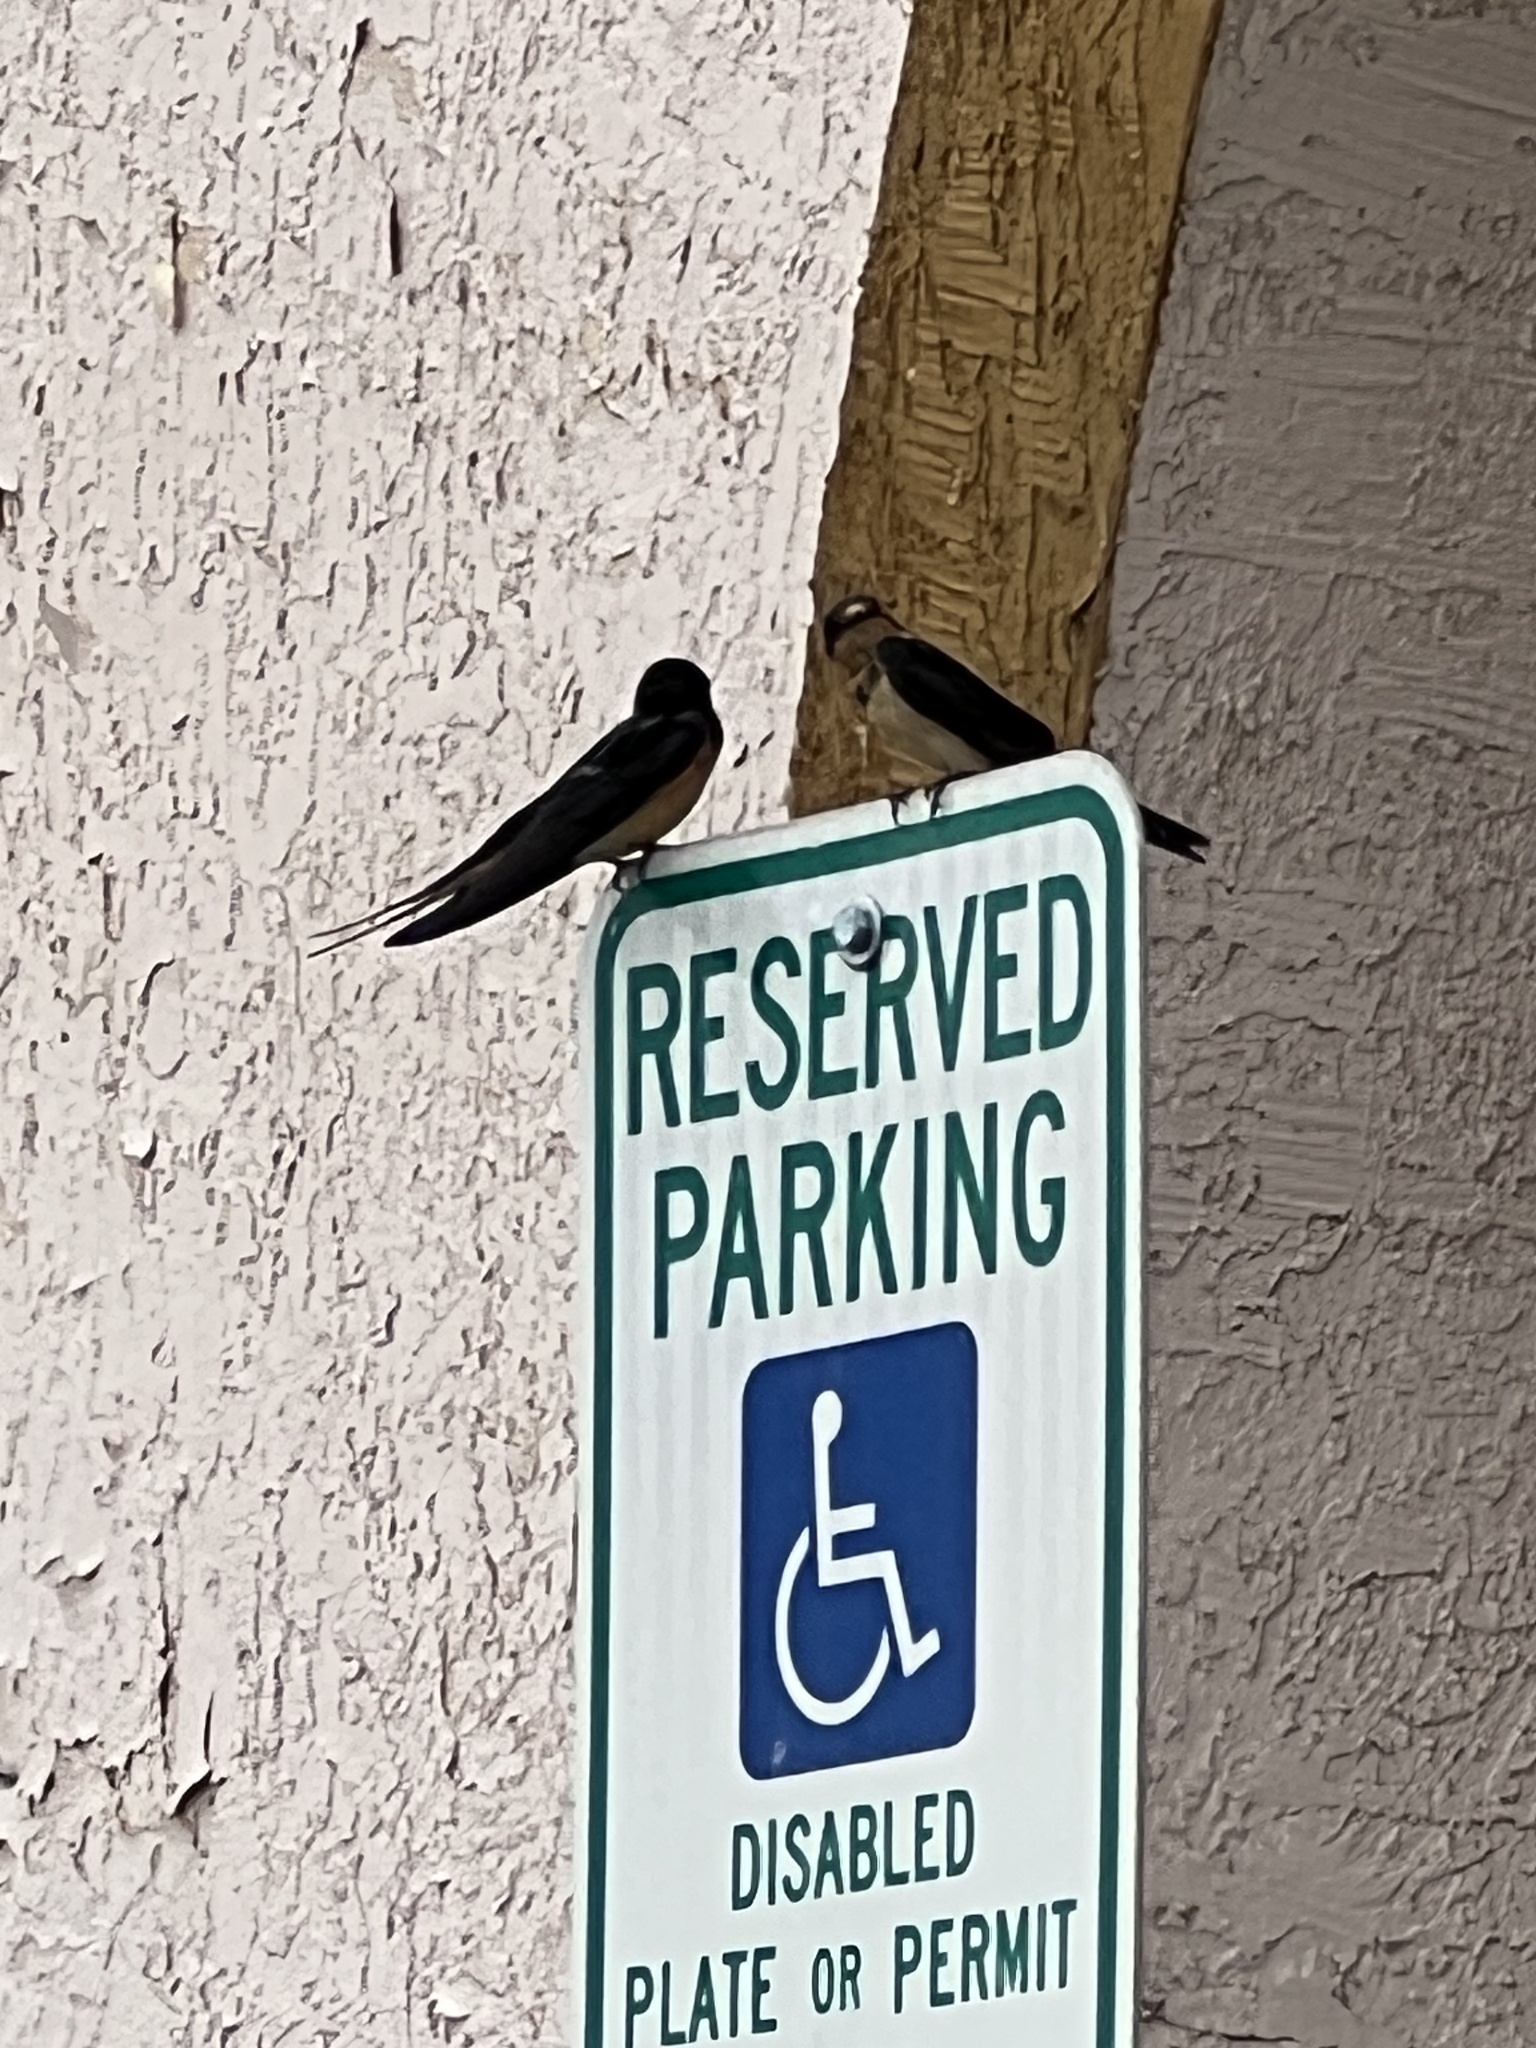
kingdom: Animalia
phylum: Chordata
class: Aves
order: Passeriformes
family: Hirundinidae
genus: Hirundo
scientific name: Hirundo rustica
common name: Barn swallow
